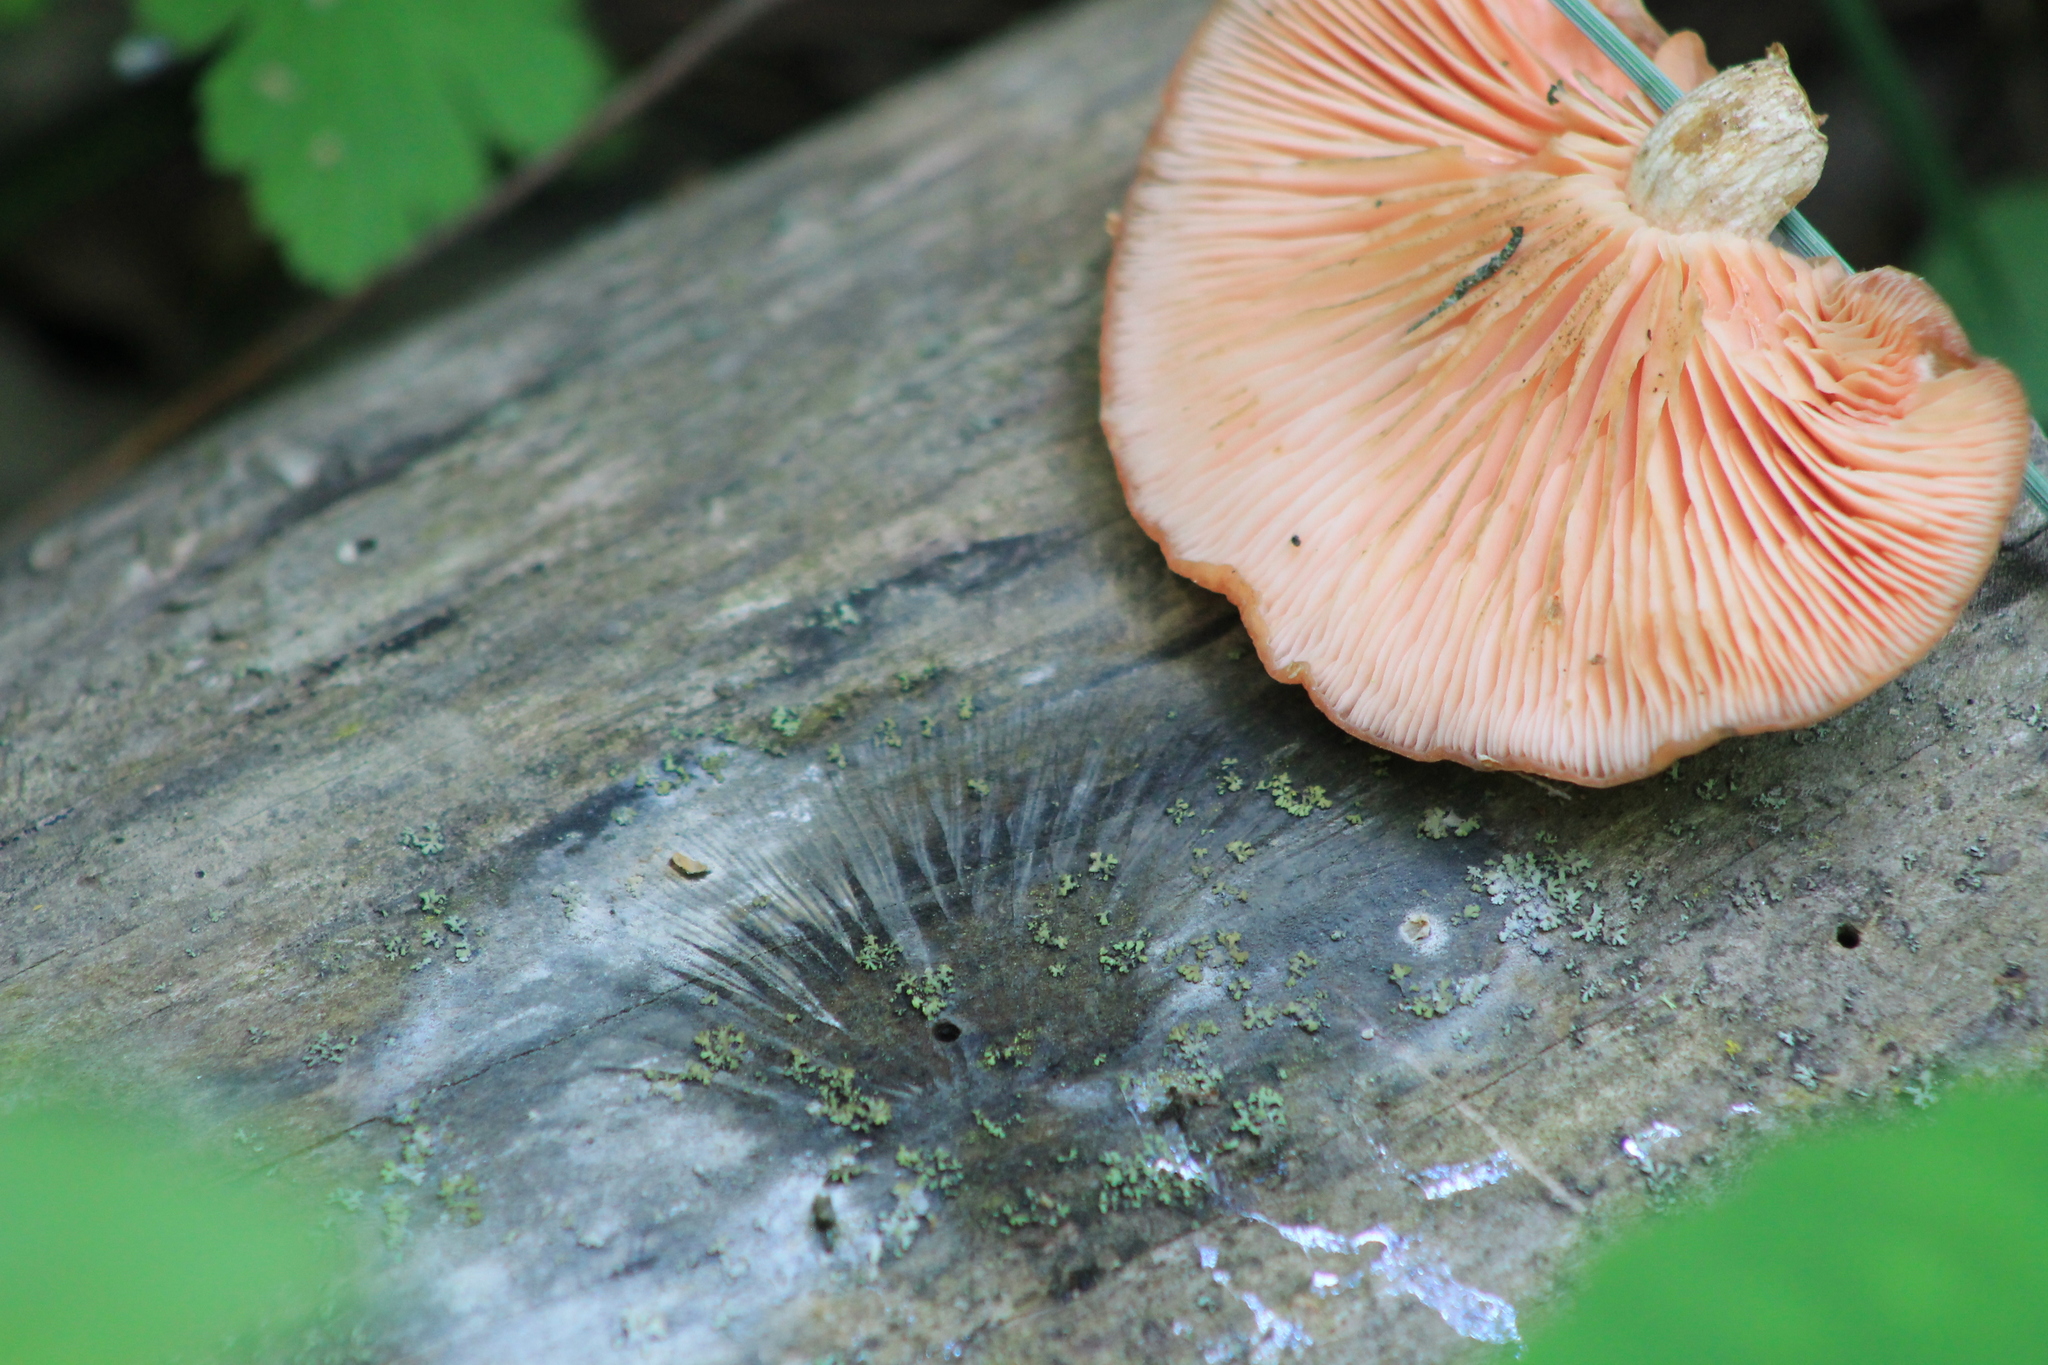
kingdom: Fungi
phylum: Basidiomycota
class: Agaricomycetes
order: Agaricales
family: Physalacriaceae
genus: Rhodotus
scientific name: Rhodotus palmatus
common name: Wrinkled peach
